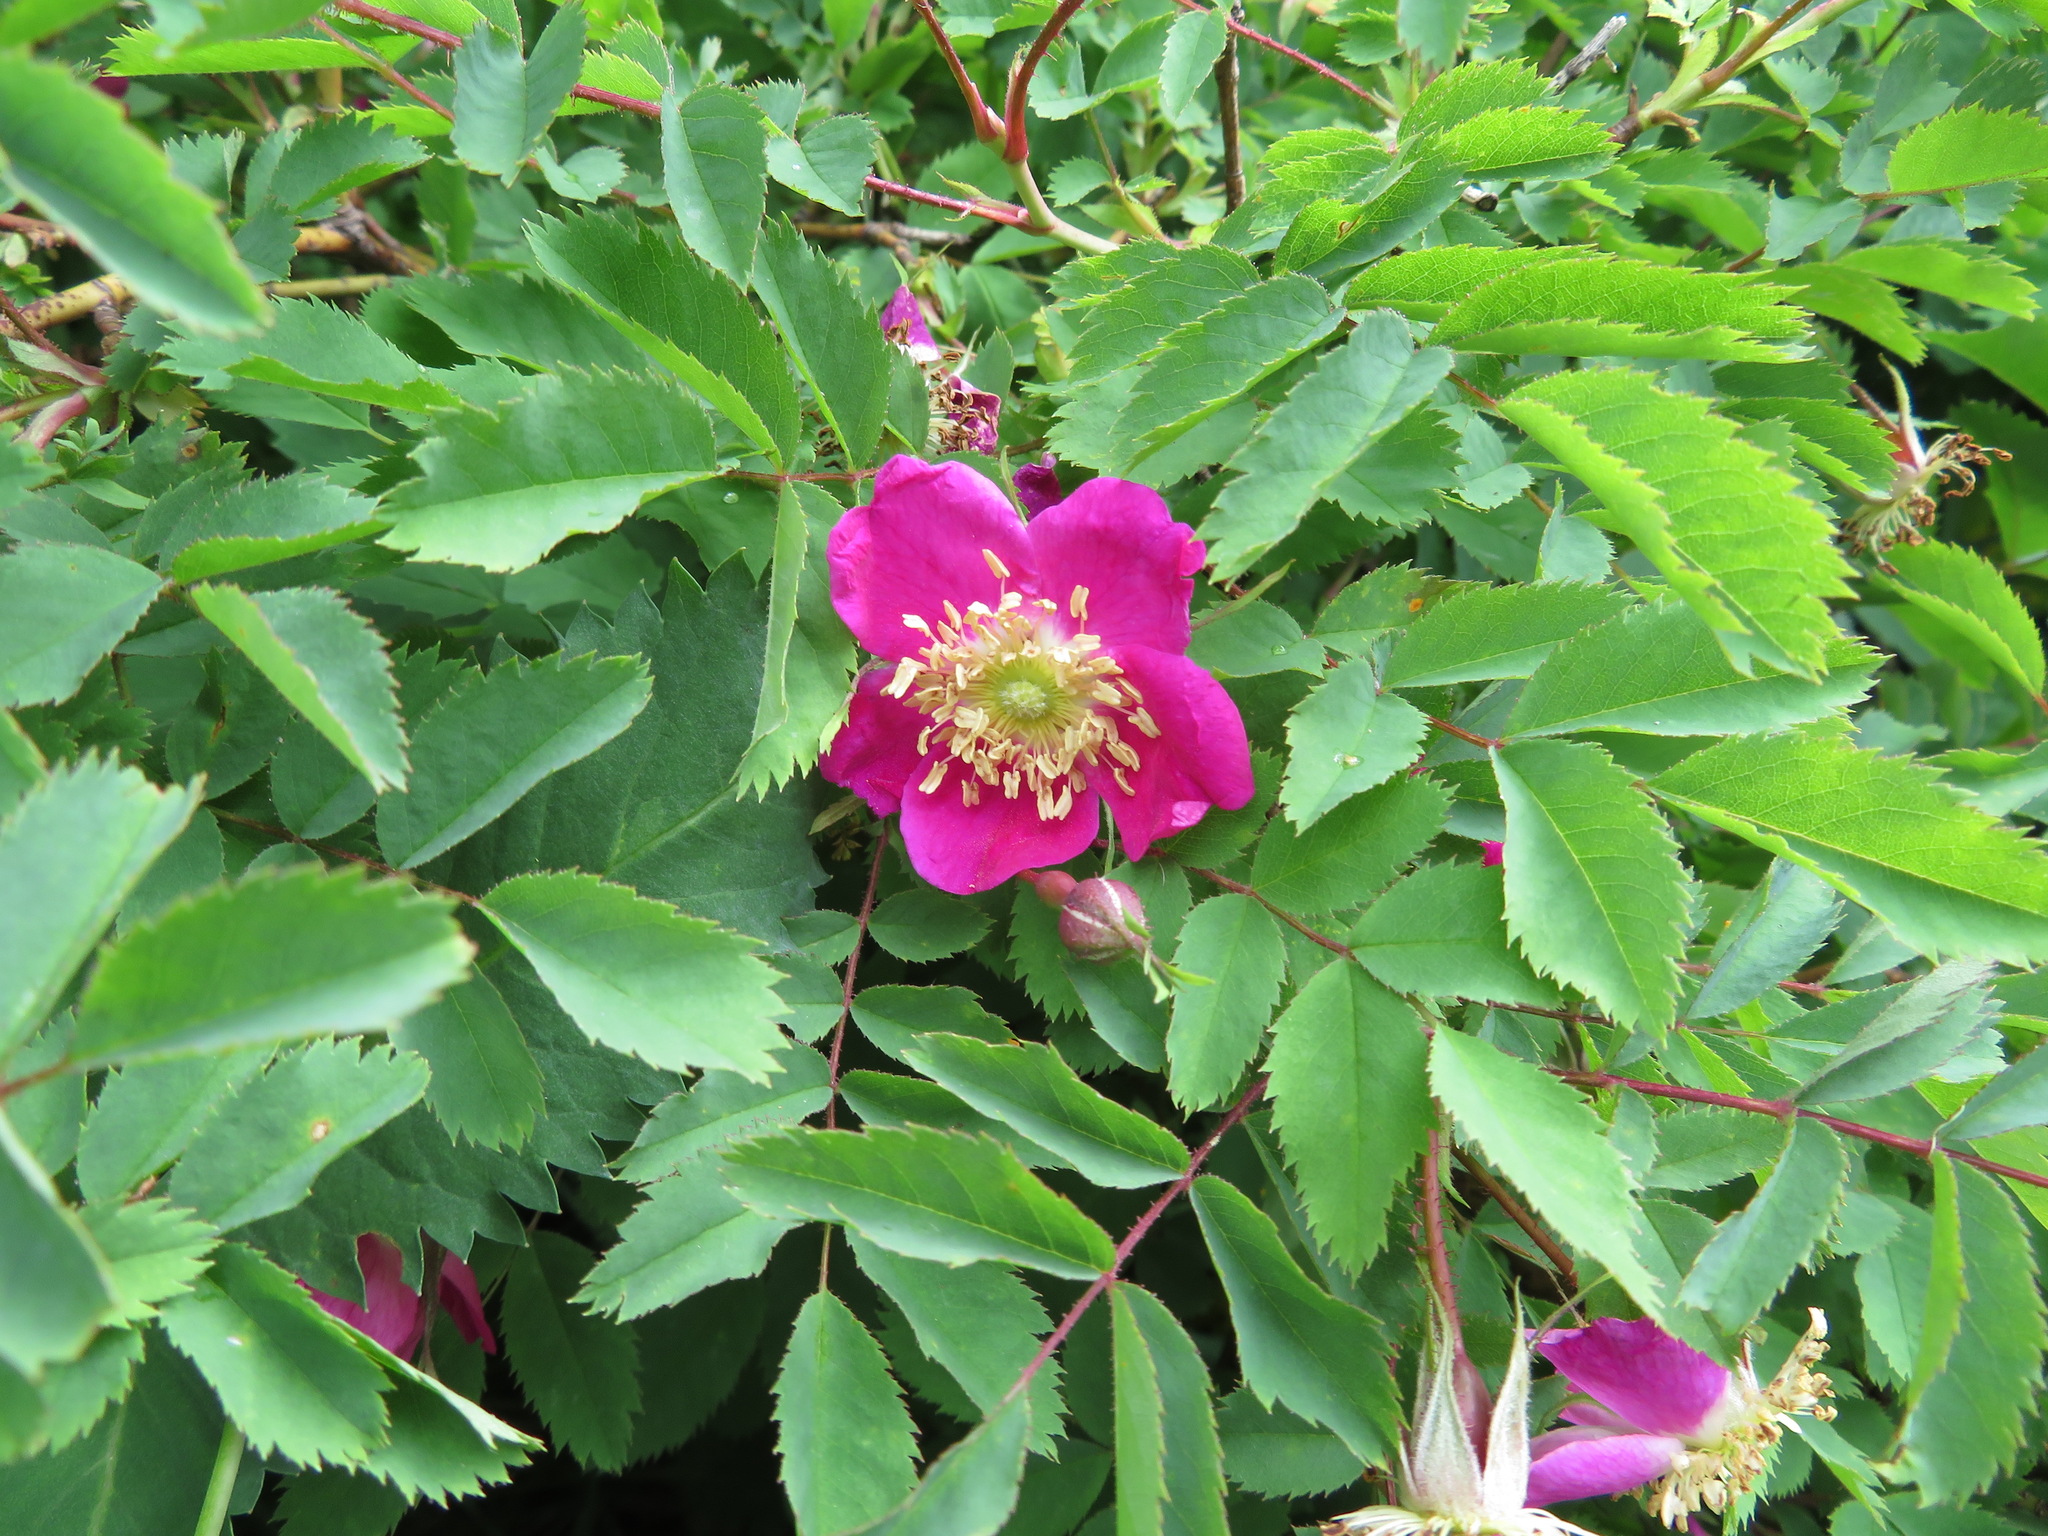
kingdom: Plantae
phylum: Tracheophyta
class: Magnoliopsida
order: Rosales
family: Rosaceae
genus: Rosa
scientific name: Rosa pendulina
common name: Alpine rose
